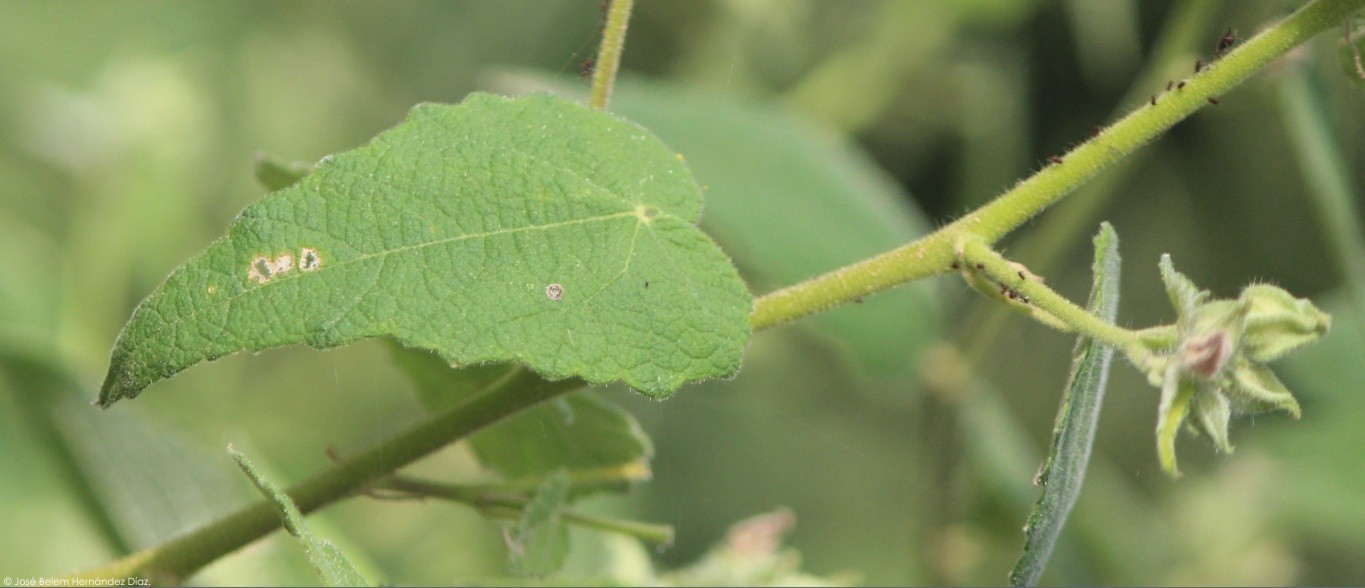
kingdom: Plantae
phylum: Tracheophyta
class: Magnoliopsida
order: Malvales
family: Malvaceae
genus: Allowissadula
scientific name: Allowissadula sessei
